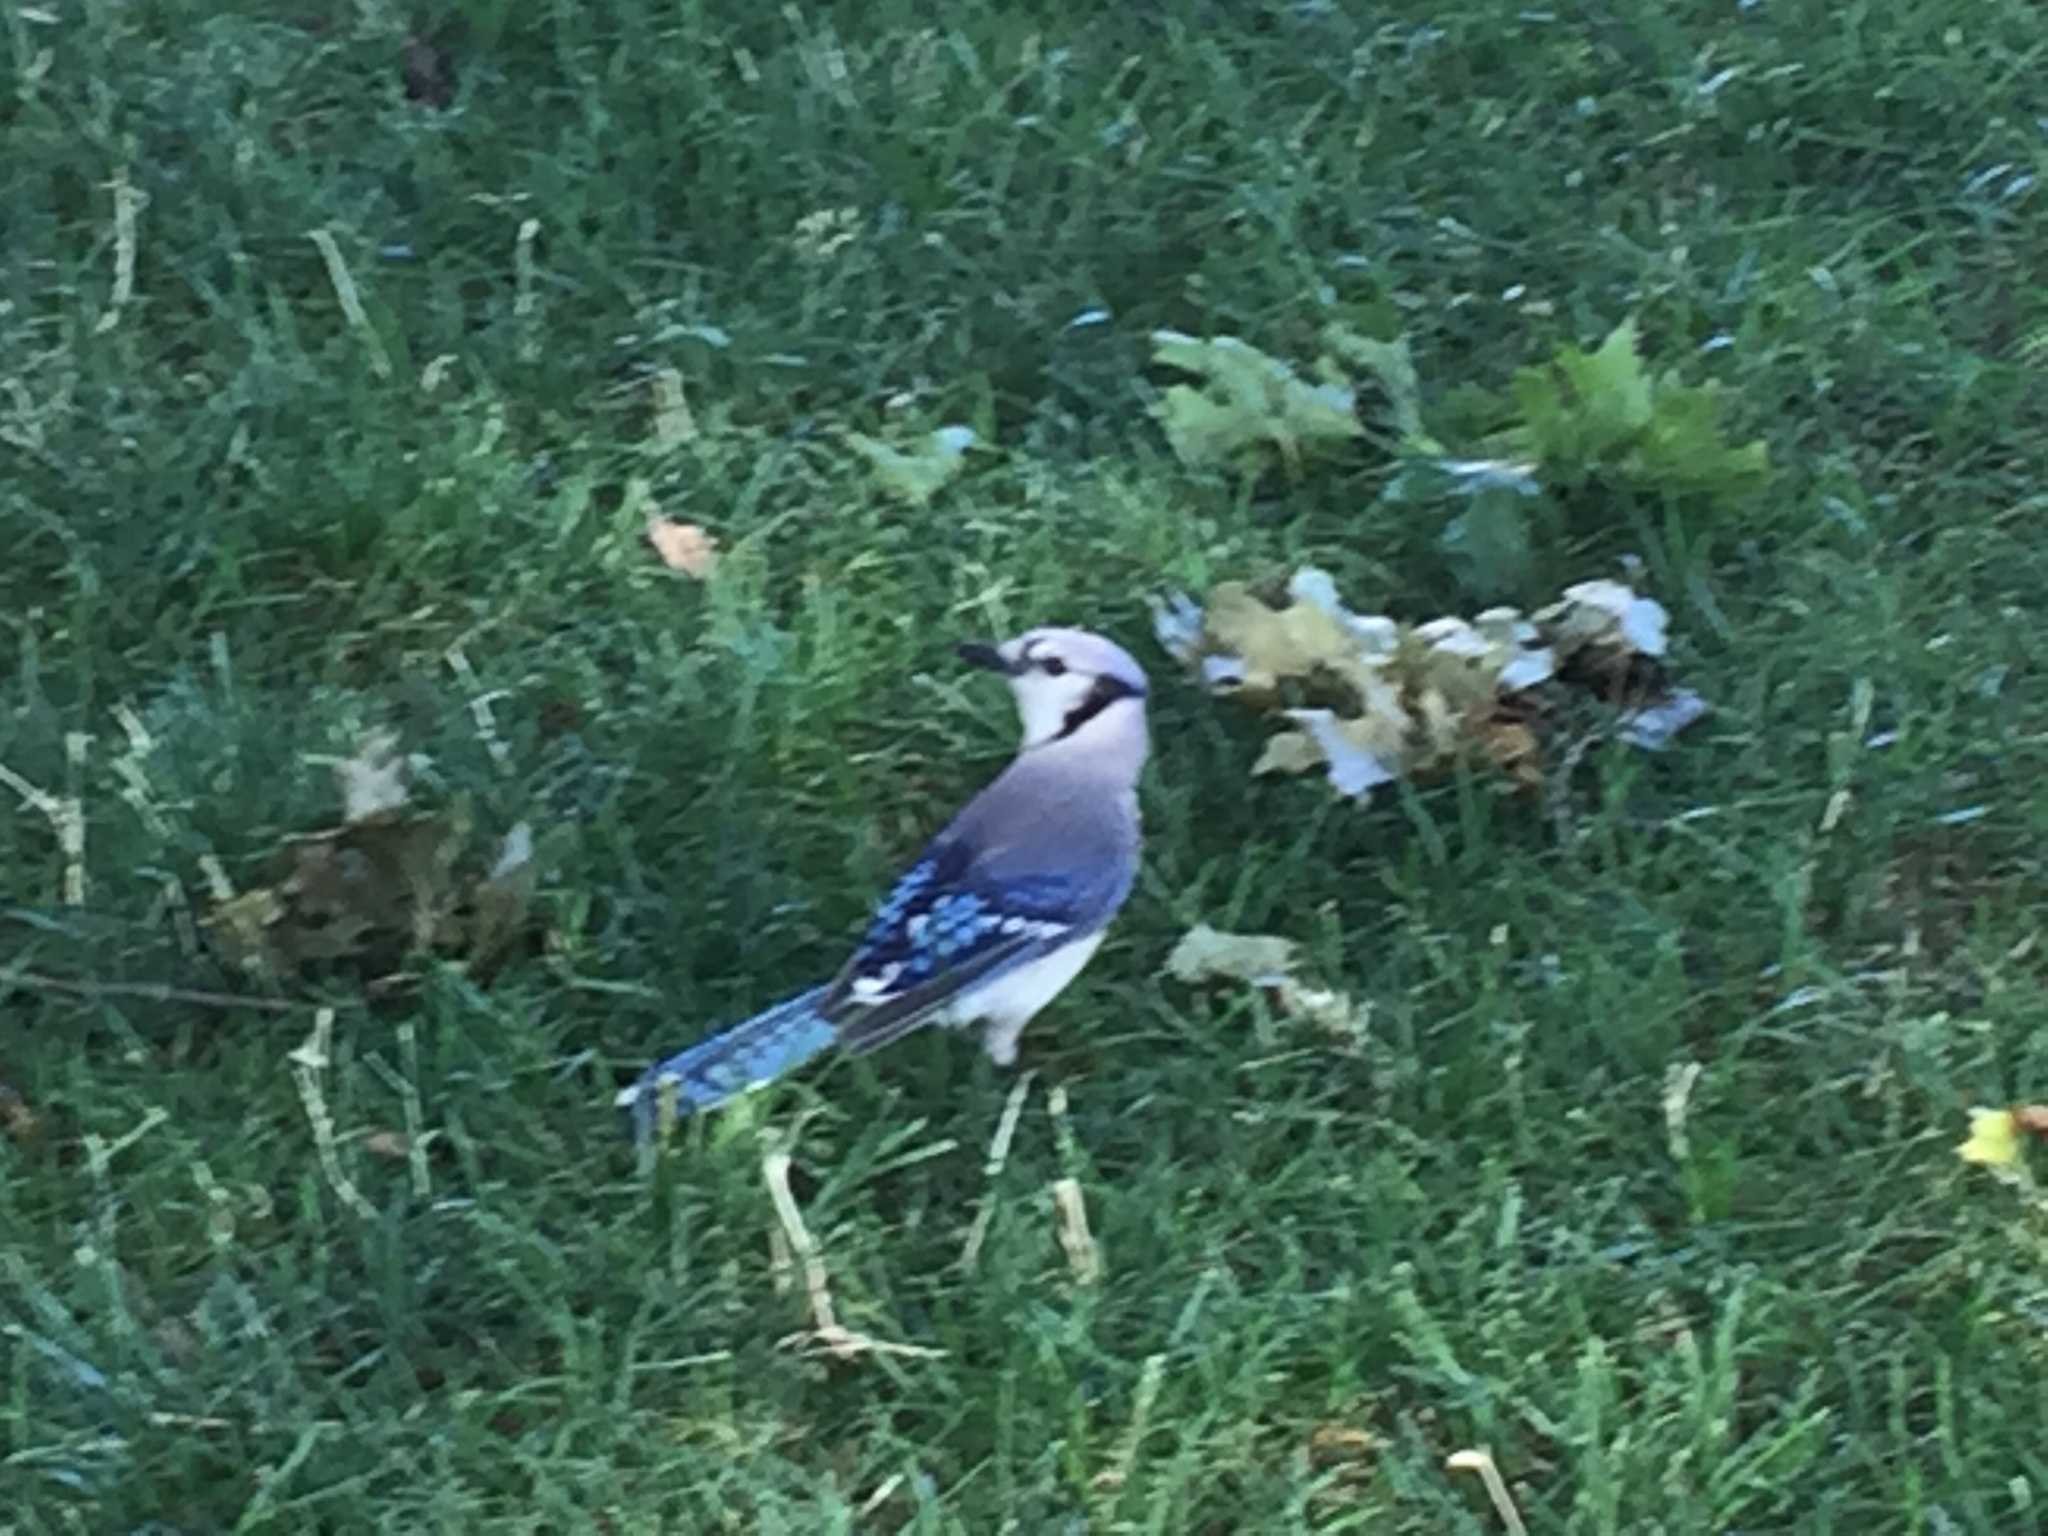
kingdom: Animalia
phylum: Chordata
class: Aves
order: Passeriformes
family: Corvidae
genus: Cyanocitta
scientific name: Cyanocitta cristata
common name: Blue jay
